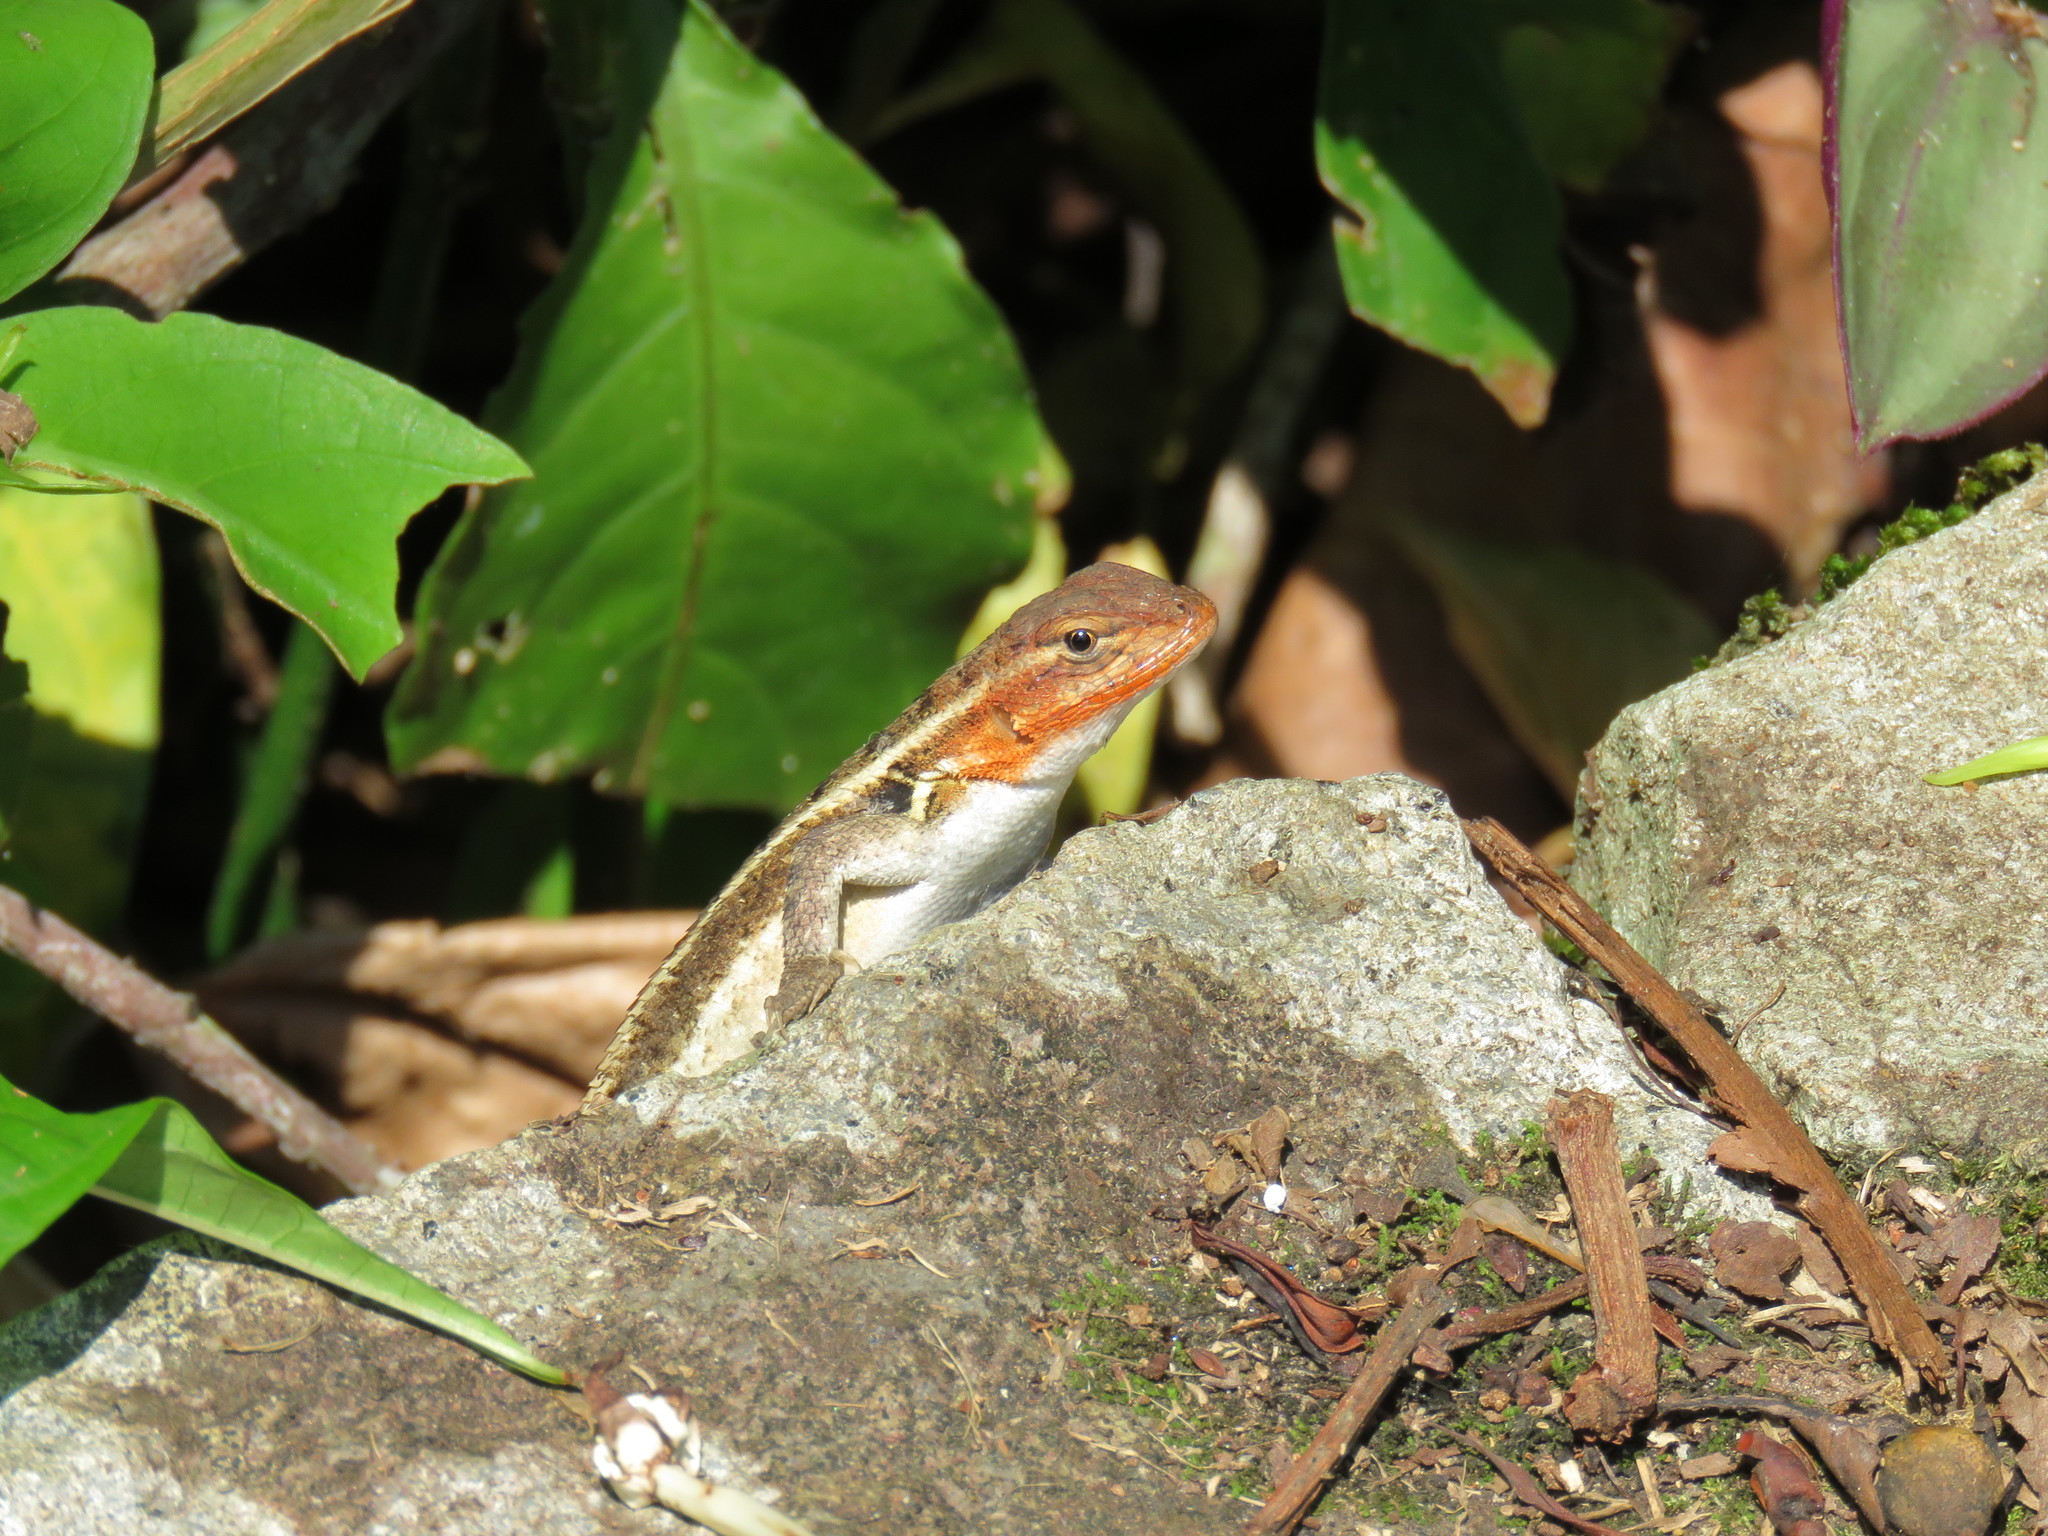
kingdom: Animalia
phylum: Chordata
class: Squamata
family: Phrynosomatidae
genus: Sceloporus
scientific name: Sceloporus variabilis
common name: Rosebelly lizard
